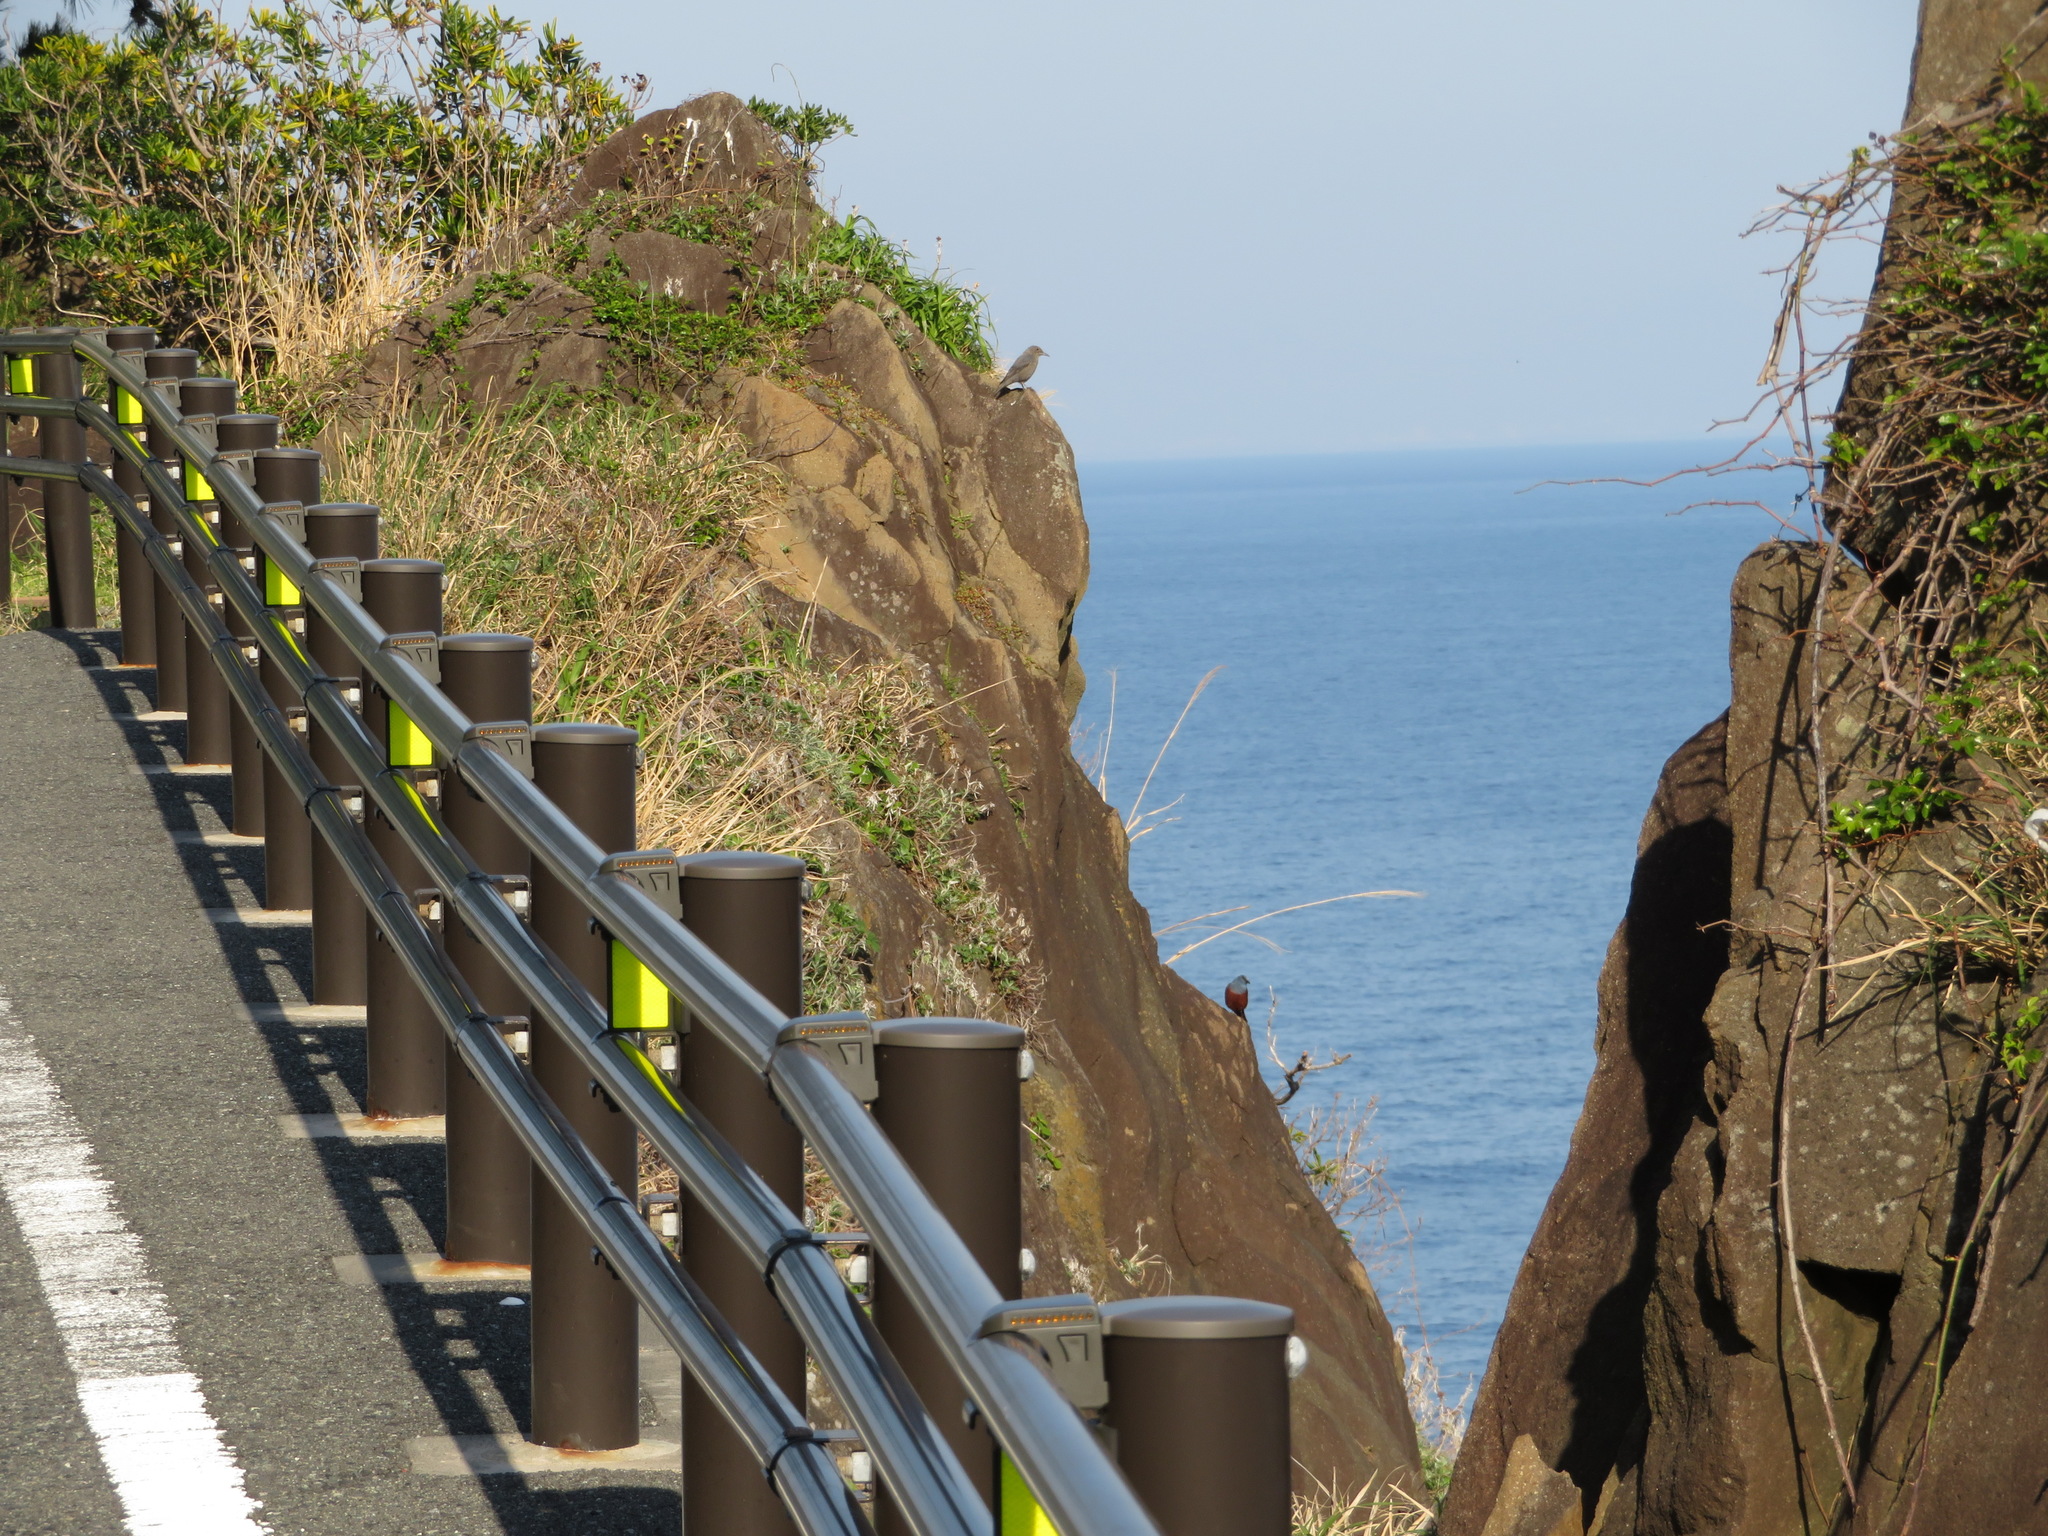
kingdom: Animalia
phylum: Chordata
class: Aves
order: Passeriformes
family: Muscicapidae
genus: Monticola
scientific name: Monticola solitarius
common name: Blue rock thrush
